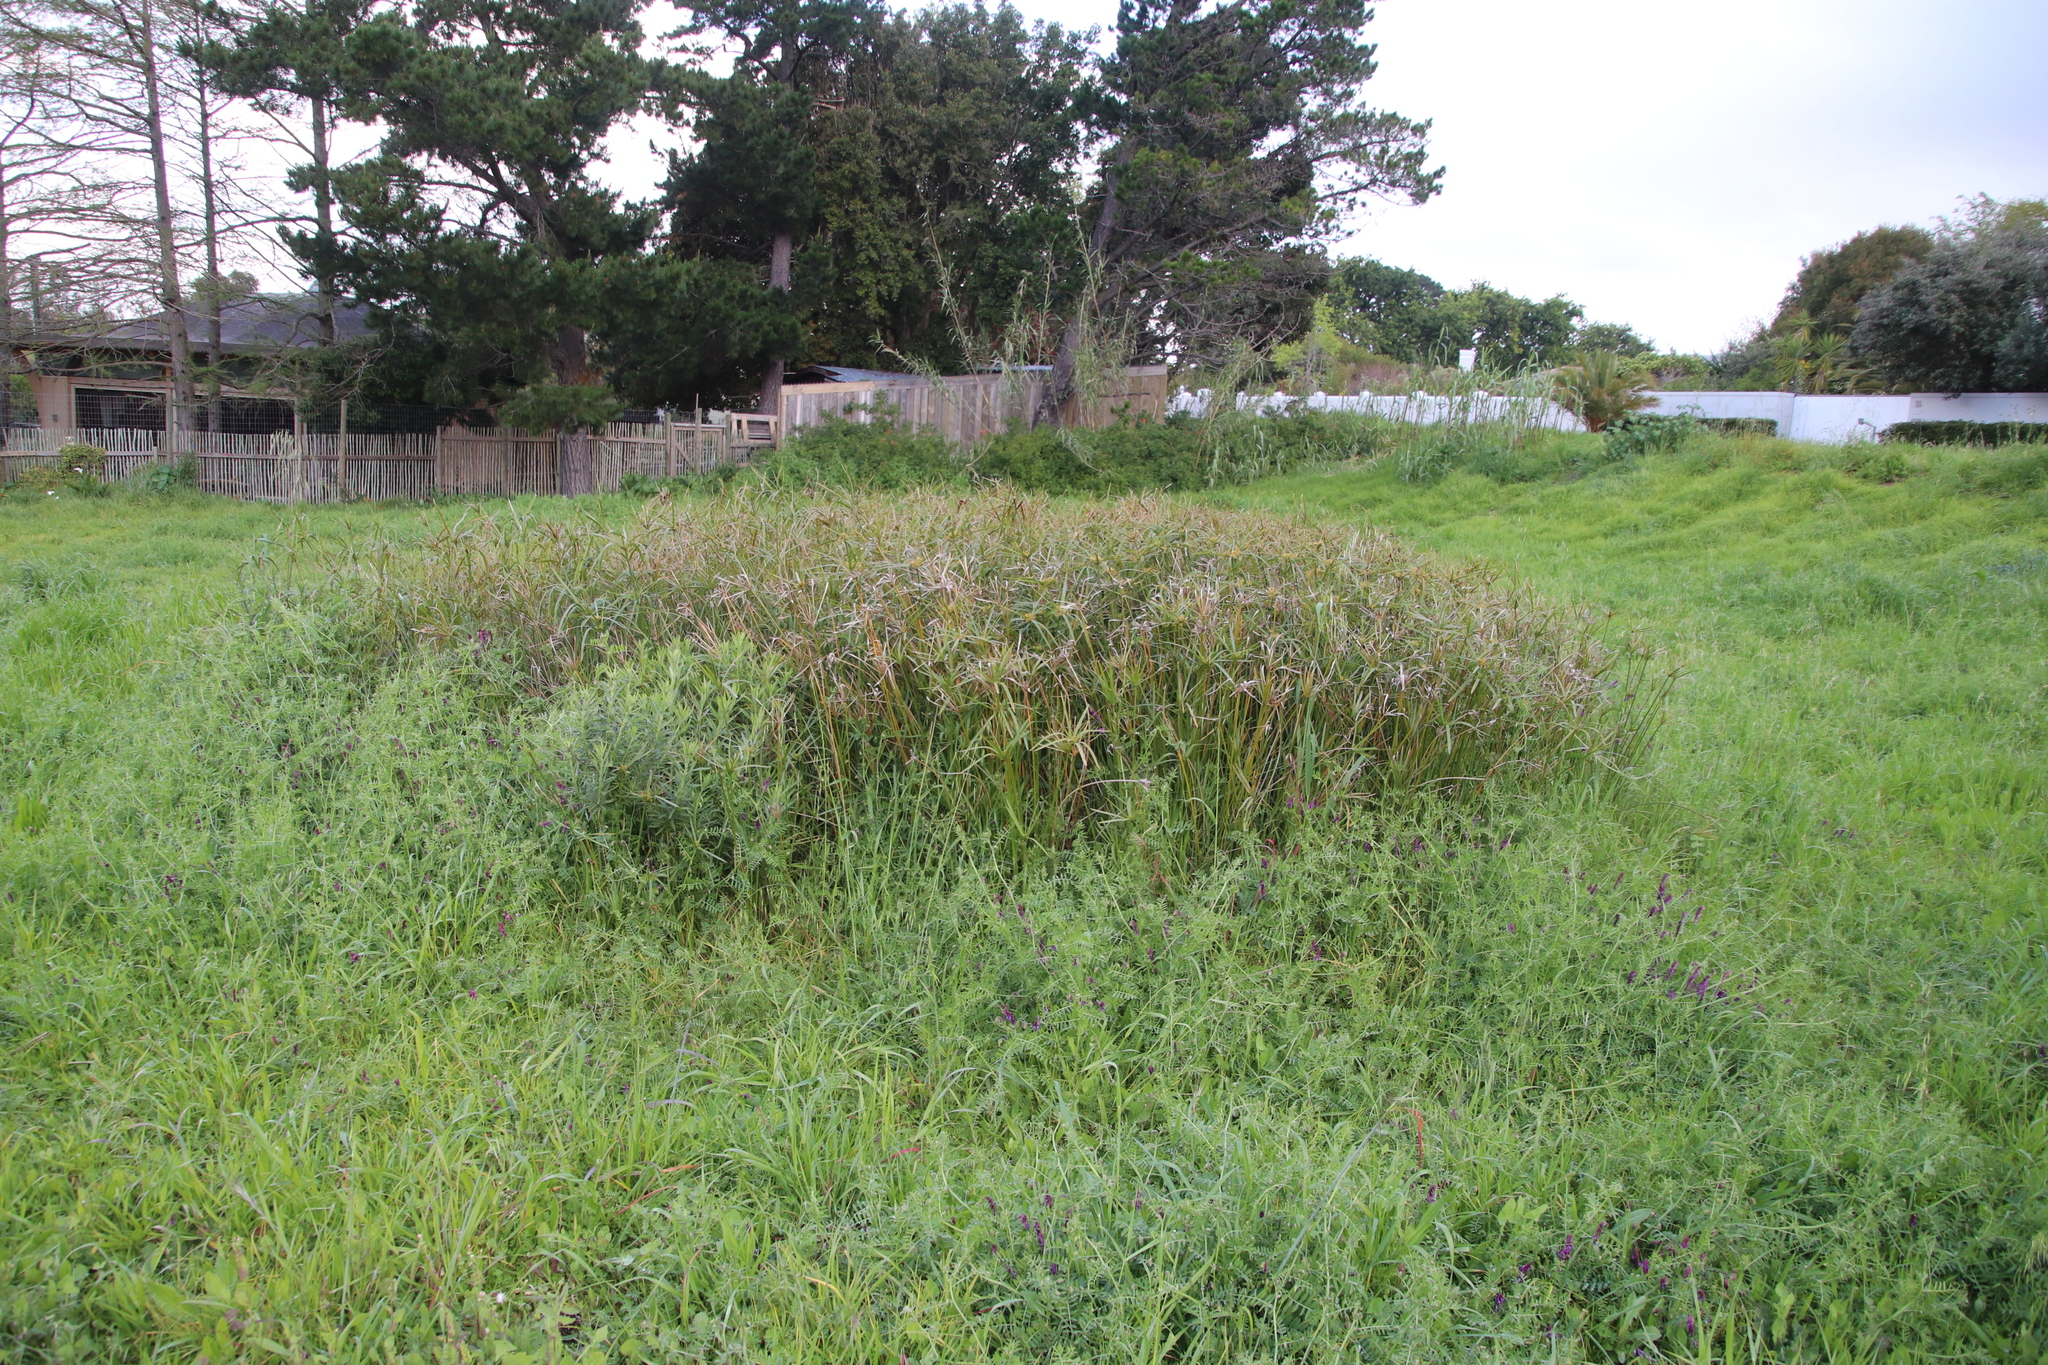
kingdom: Plantae
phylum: Tracheophyta
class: Liliopsida
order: Poales
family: Cyperaceae
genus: Cyperus
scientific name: Cyperus textilis
